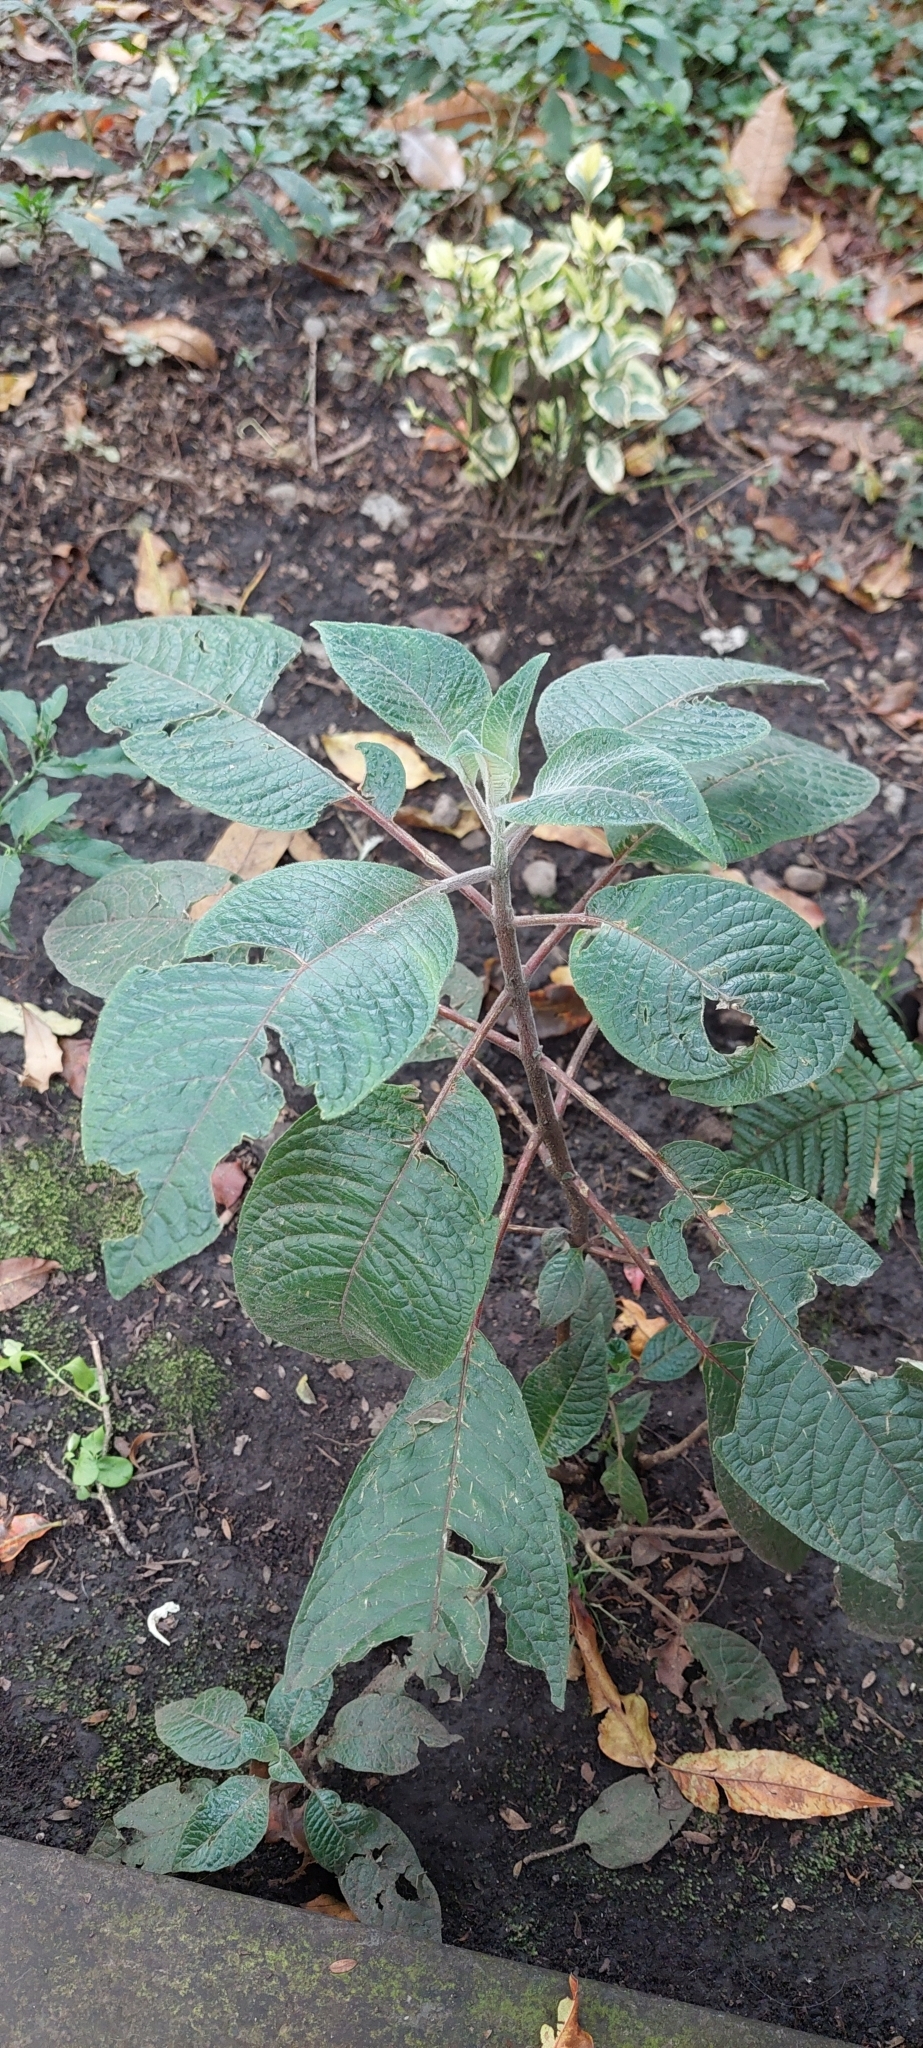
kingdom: Plantae
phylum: Tracheophyta
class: Magnoliopsida
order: Myrtales
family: Onagraceae
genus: Fuchsia
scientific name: Fuchsia boliviana
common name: Bolivian fuchsia
